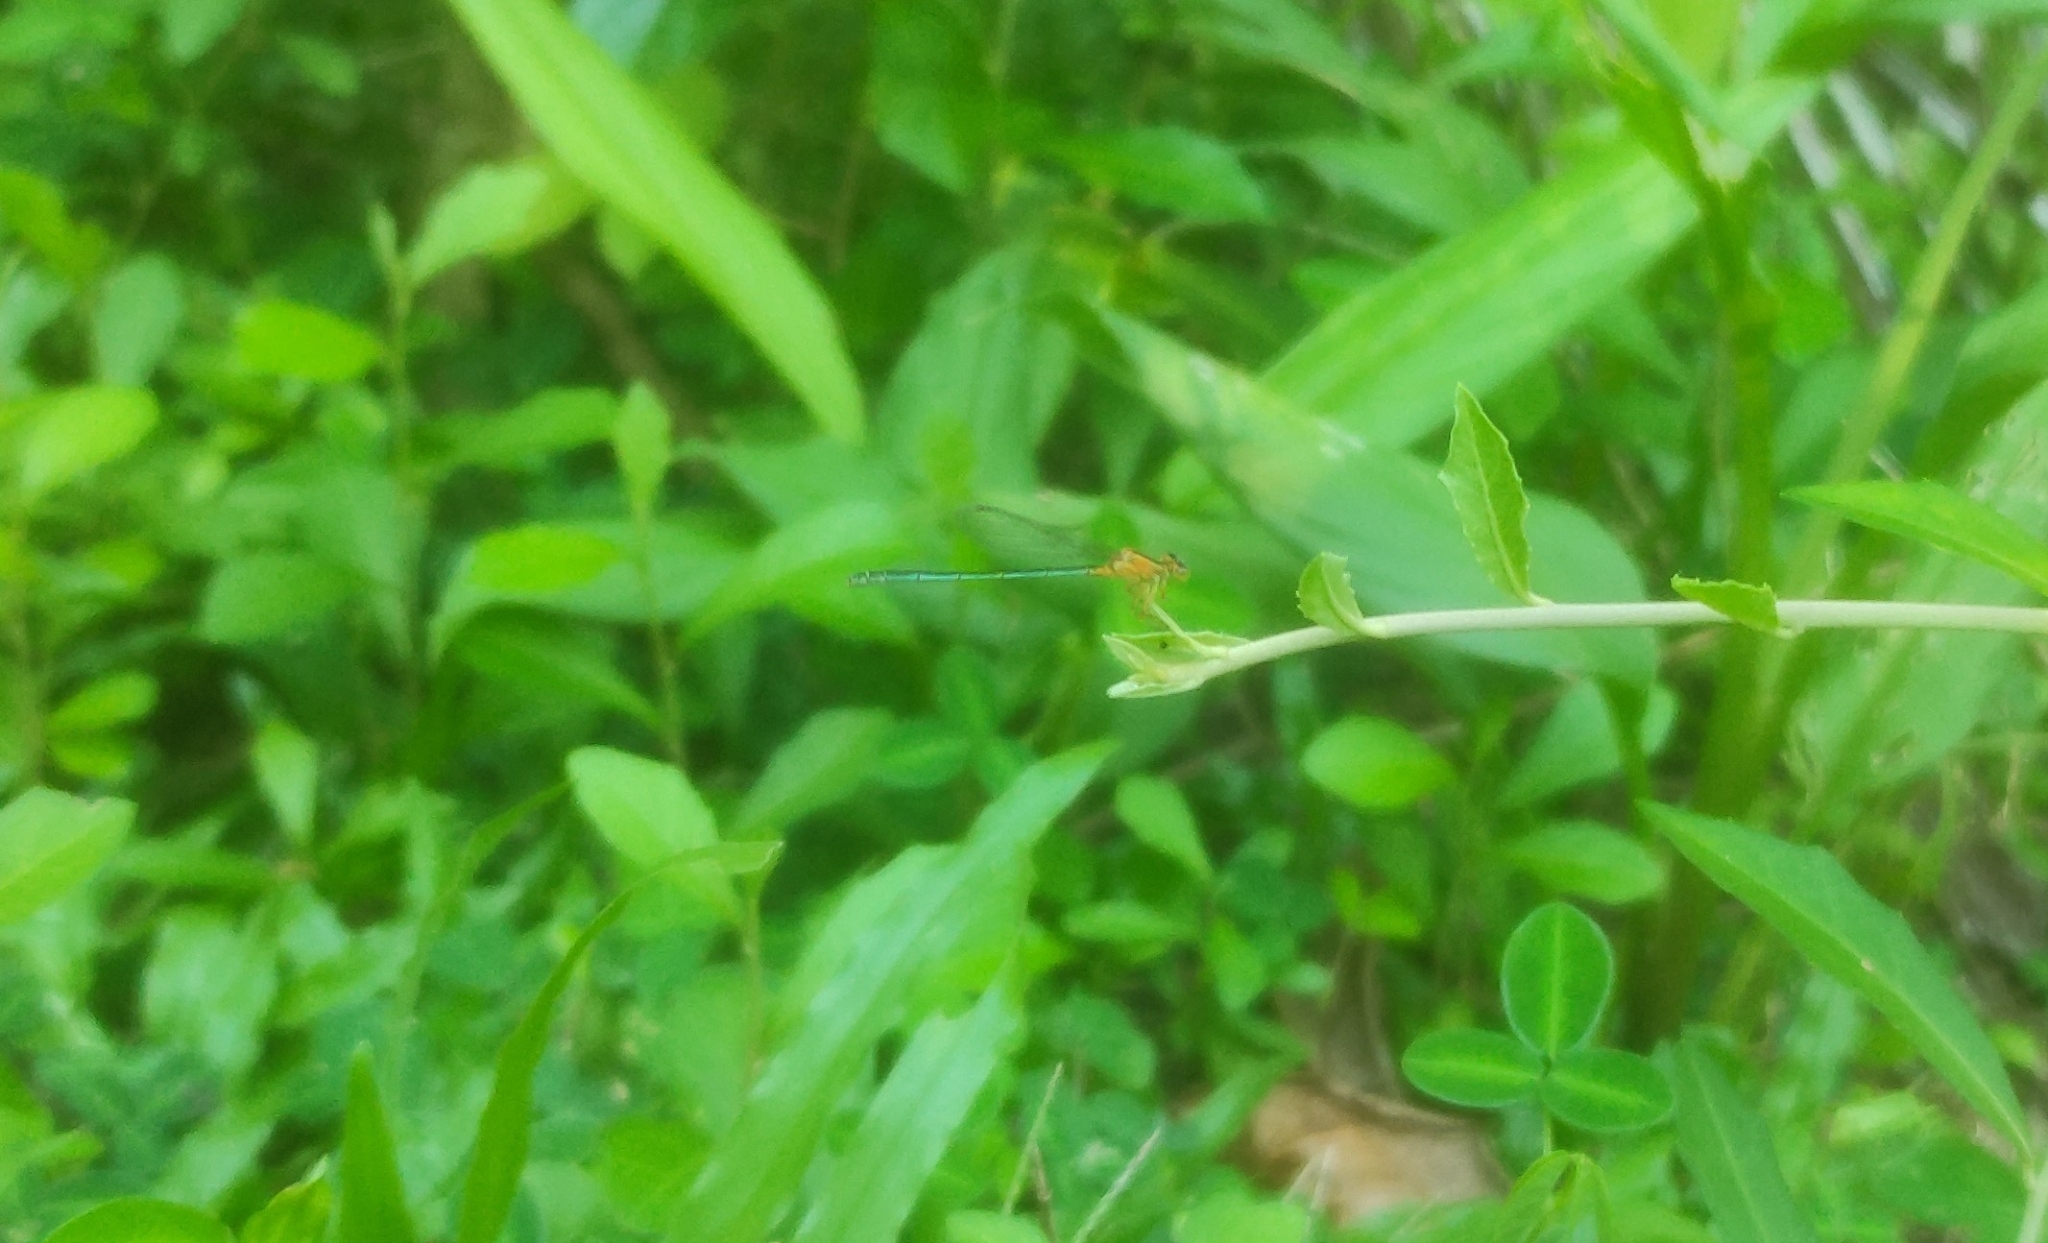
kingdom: Animalia
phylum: Arthropoda
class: Insecta
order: Odonata
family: Coenagrionidae
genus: Ischnura
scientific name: Ischnura senegalensis
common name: Tropical bluetail
